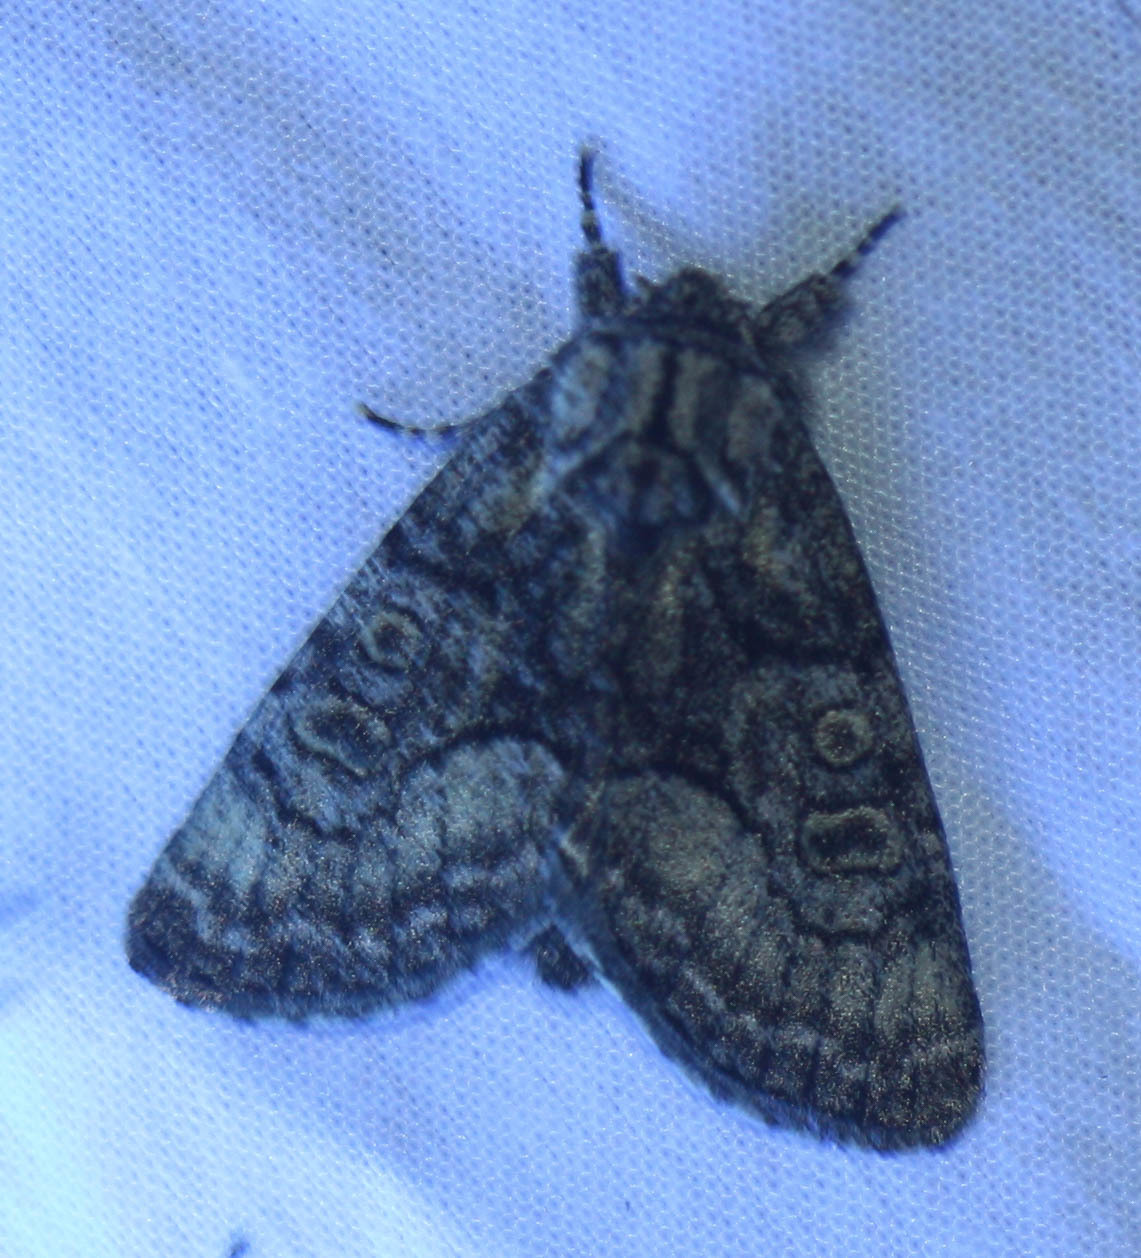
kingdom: Animalia
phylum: Arthropoda
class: Insecta
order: Lepidoptera
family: Noctuidae
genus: Raphia
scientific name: Raphia frater
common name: Brother
